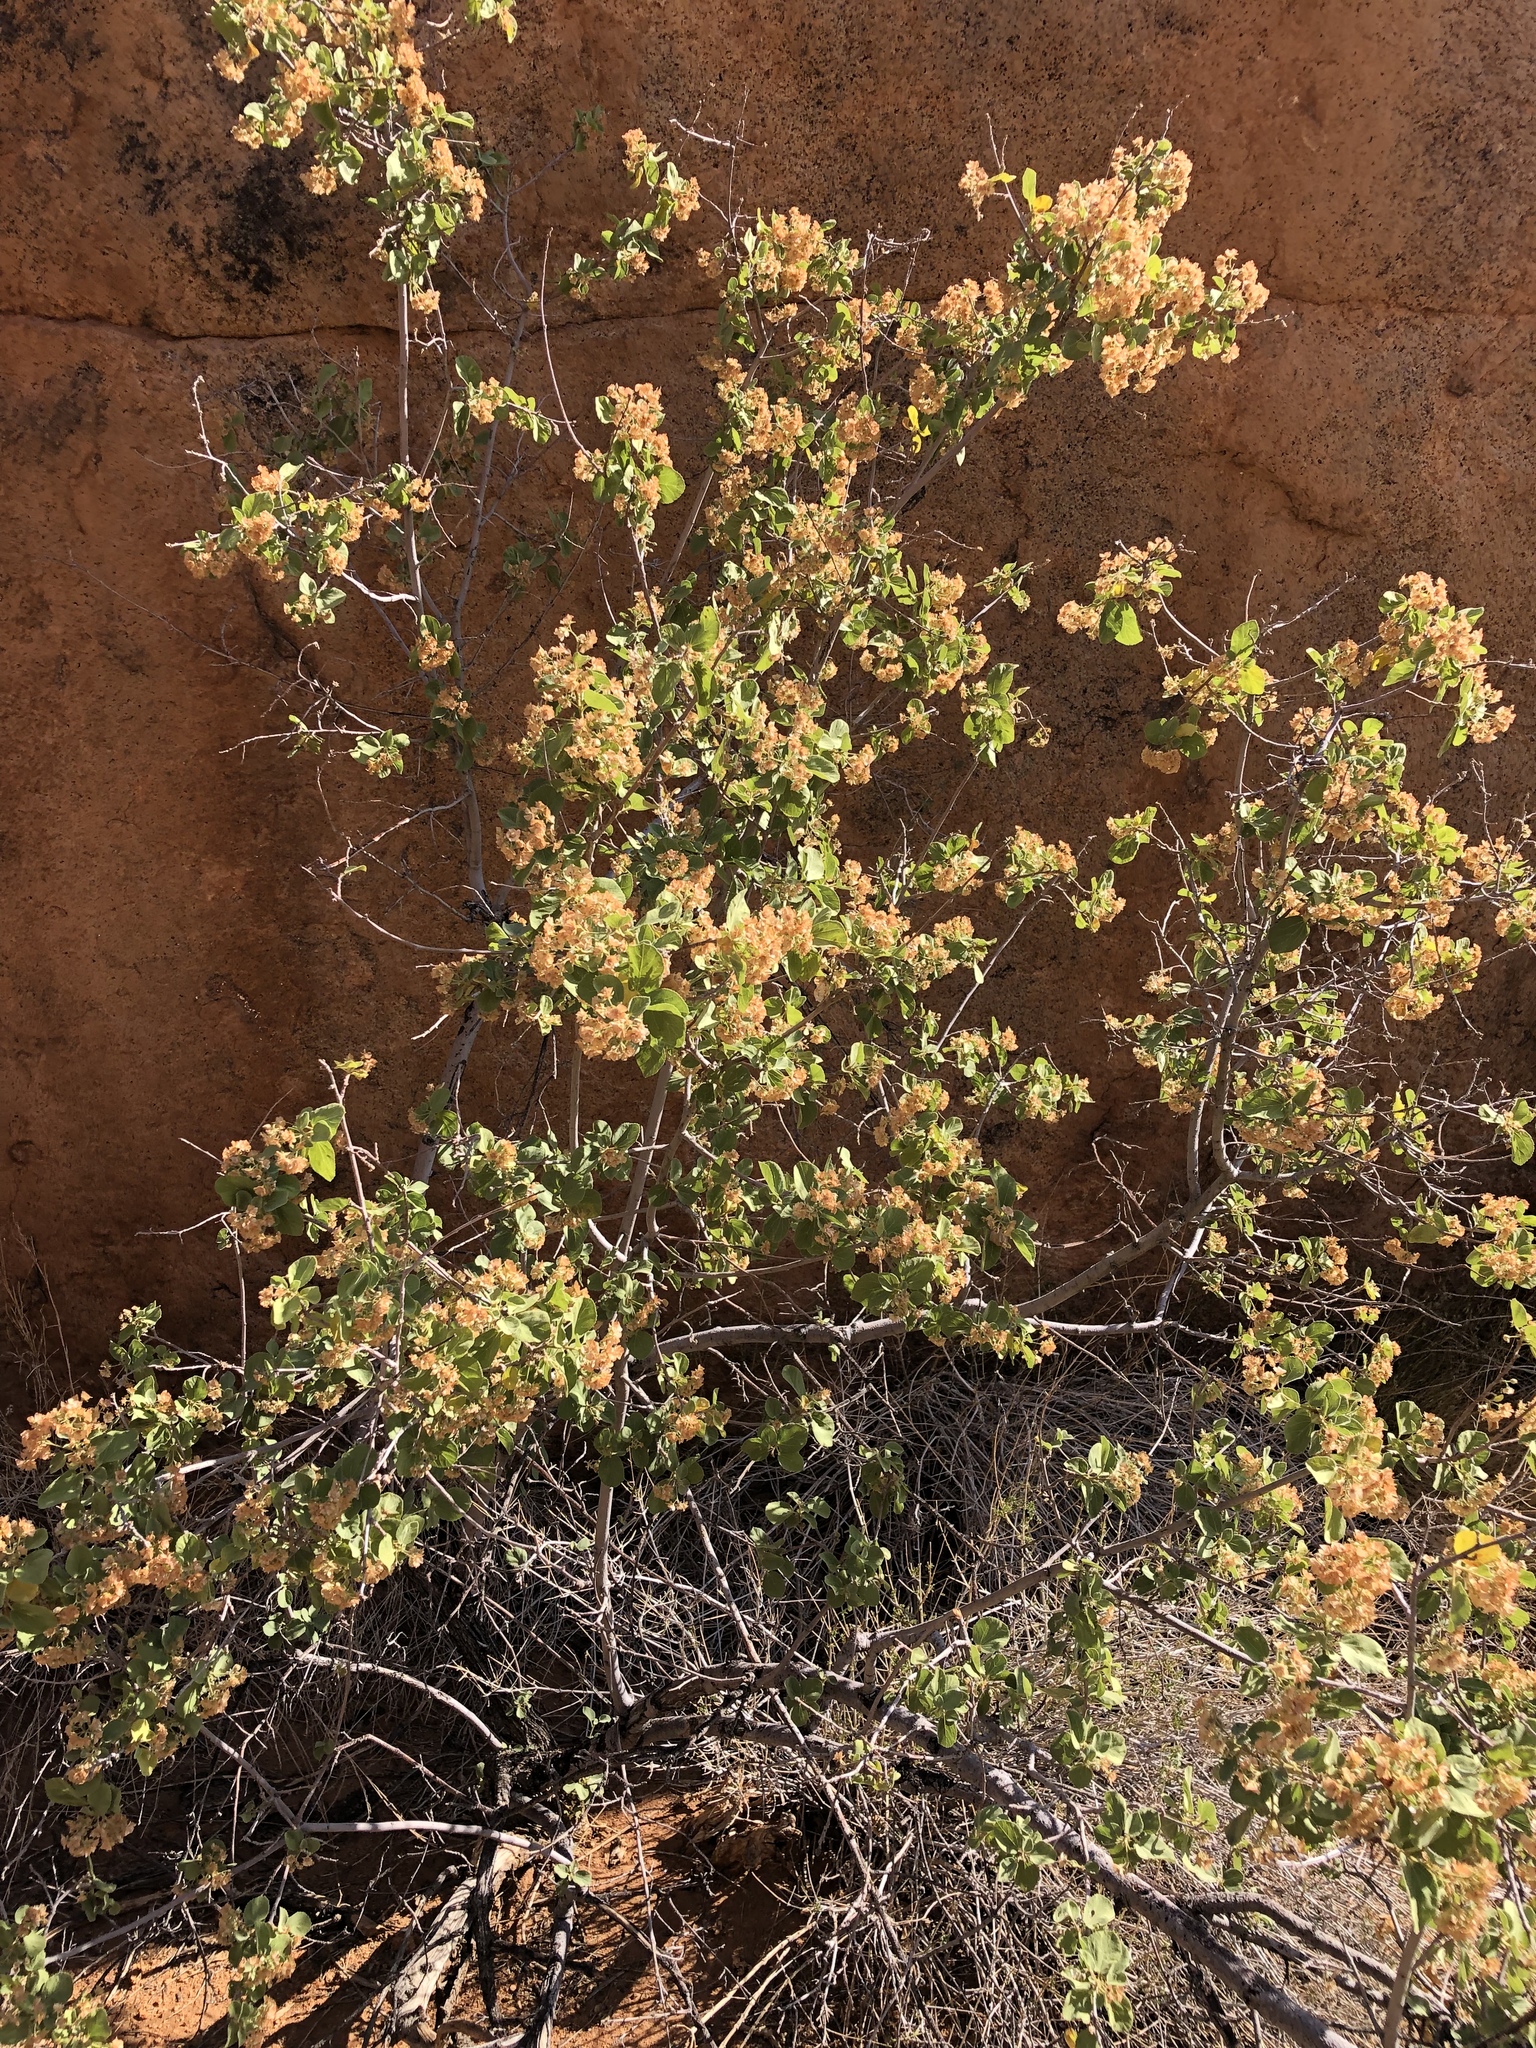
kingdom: Plantae
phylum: Tracheophyta
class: Magnoliopsida
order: Malvales
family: Malvaceae
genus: Dombeya
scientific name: Dombeya rotundifolia
